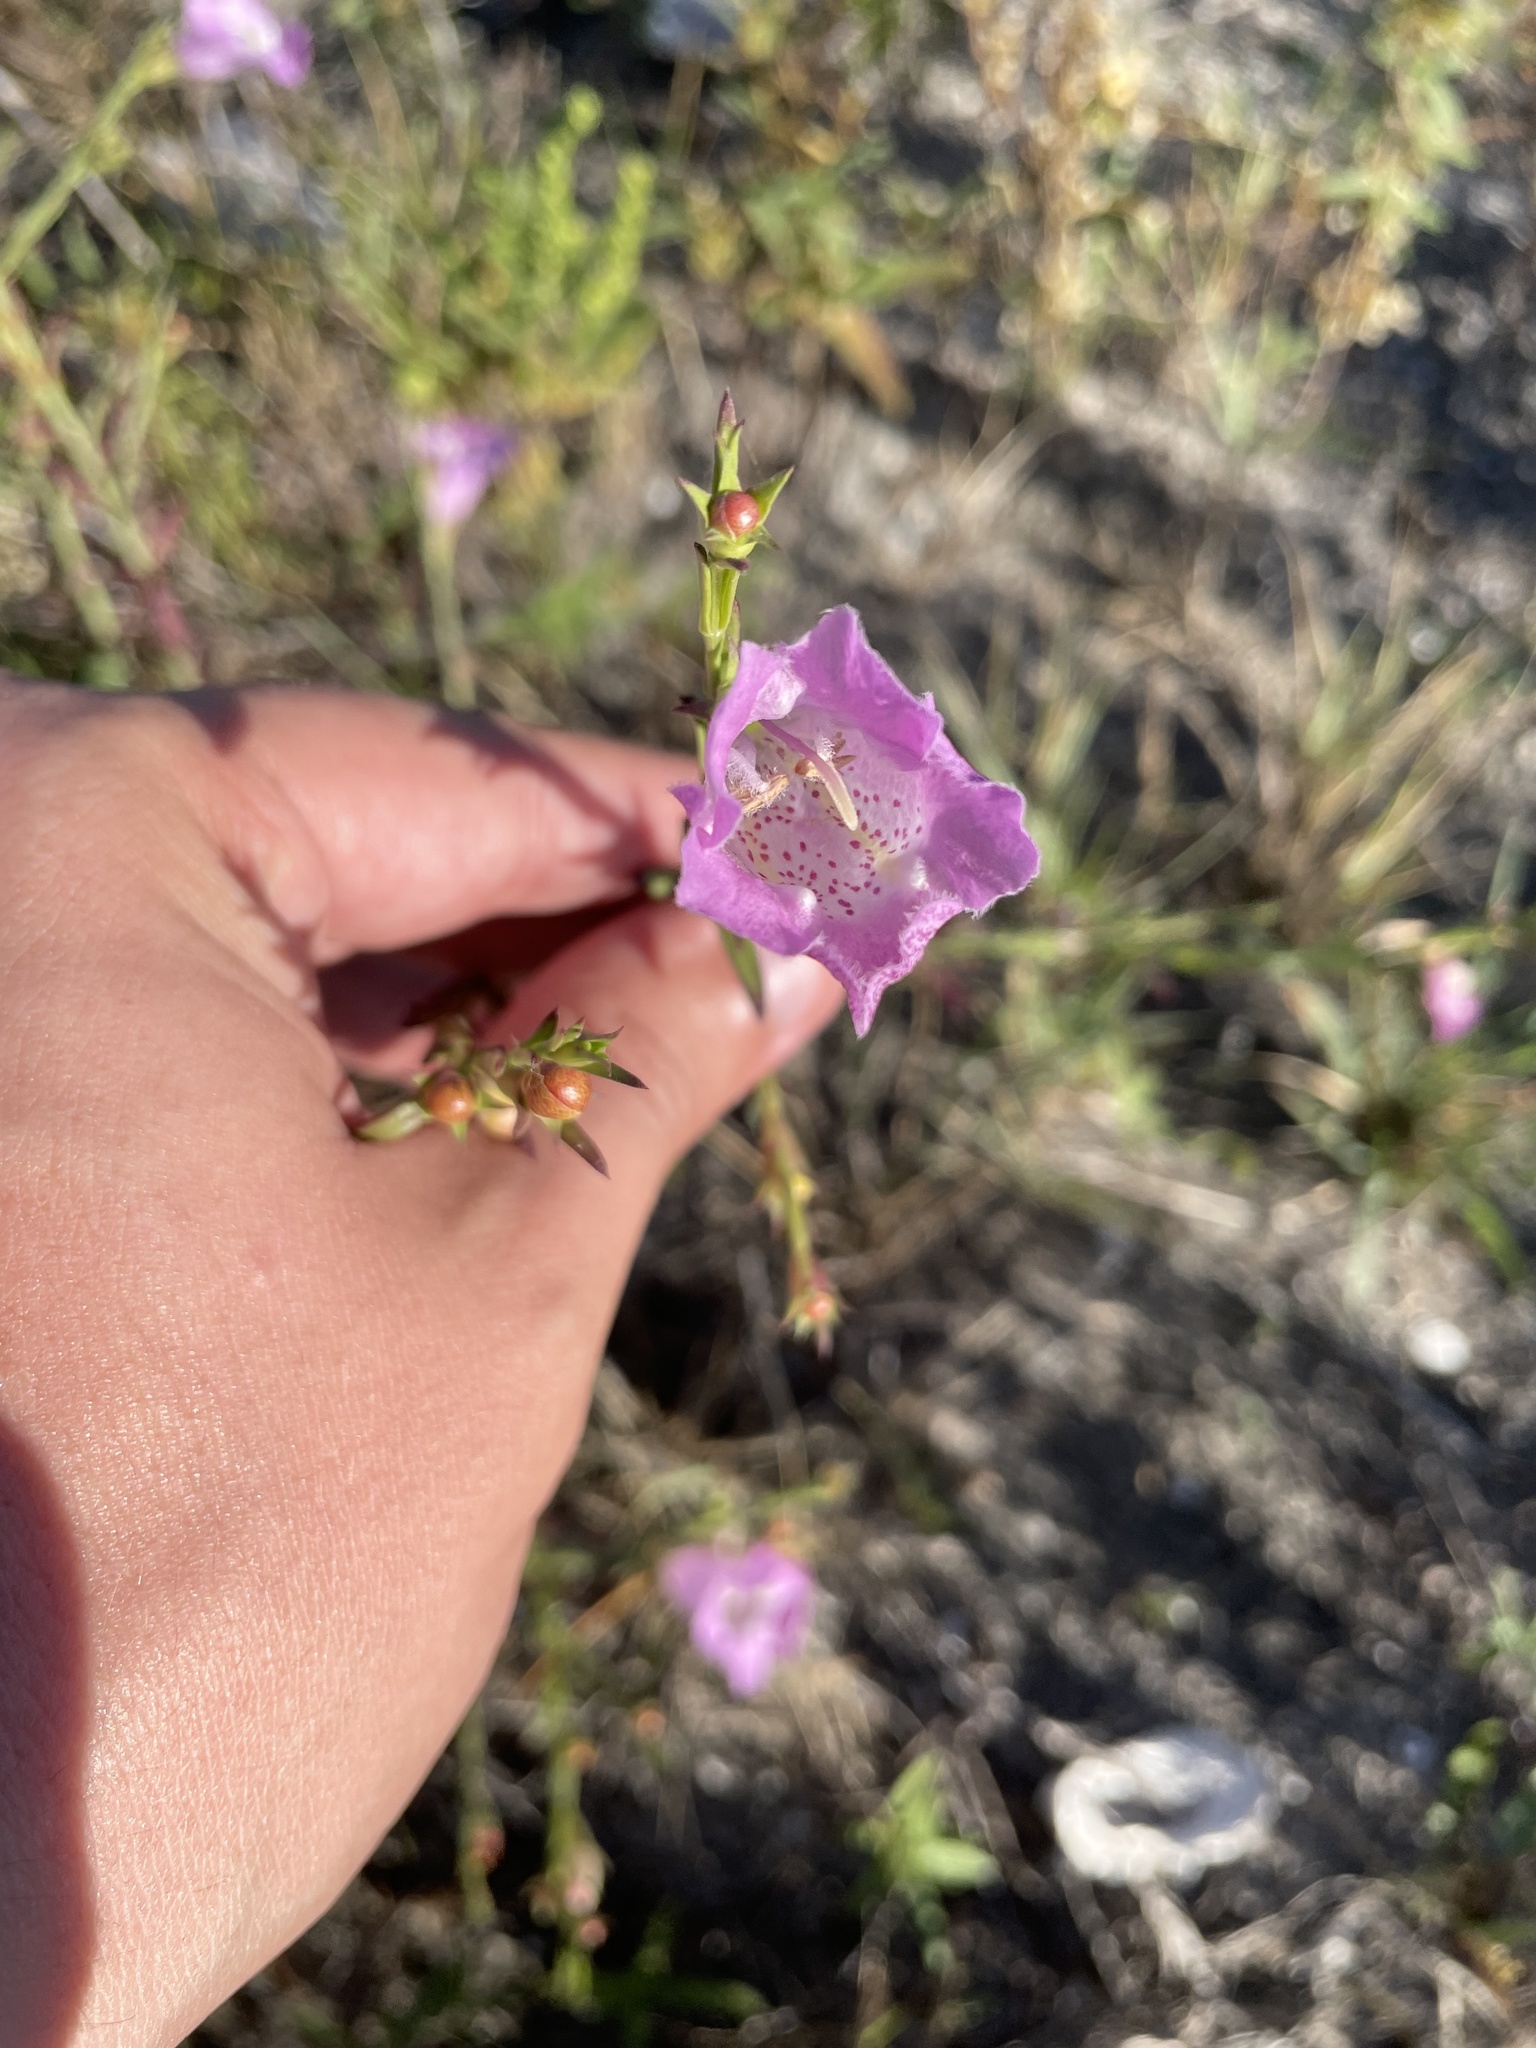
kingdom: Plantae
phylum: Tracheophyta
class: Magnoliopsida
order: Lamiales
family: Orobanchaceae
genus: Agalinis
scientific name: Agalinis heterophylla
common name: Prairie agalinis
